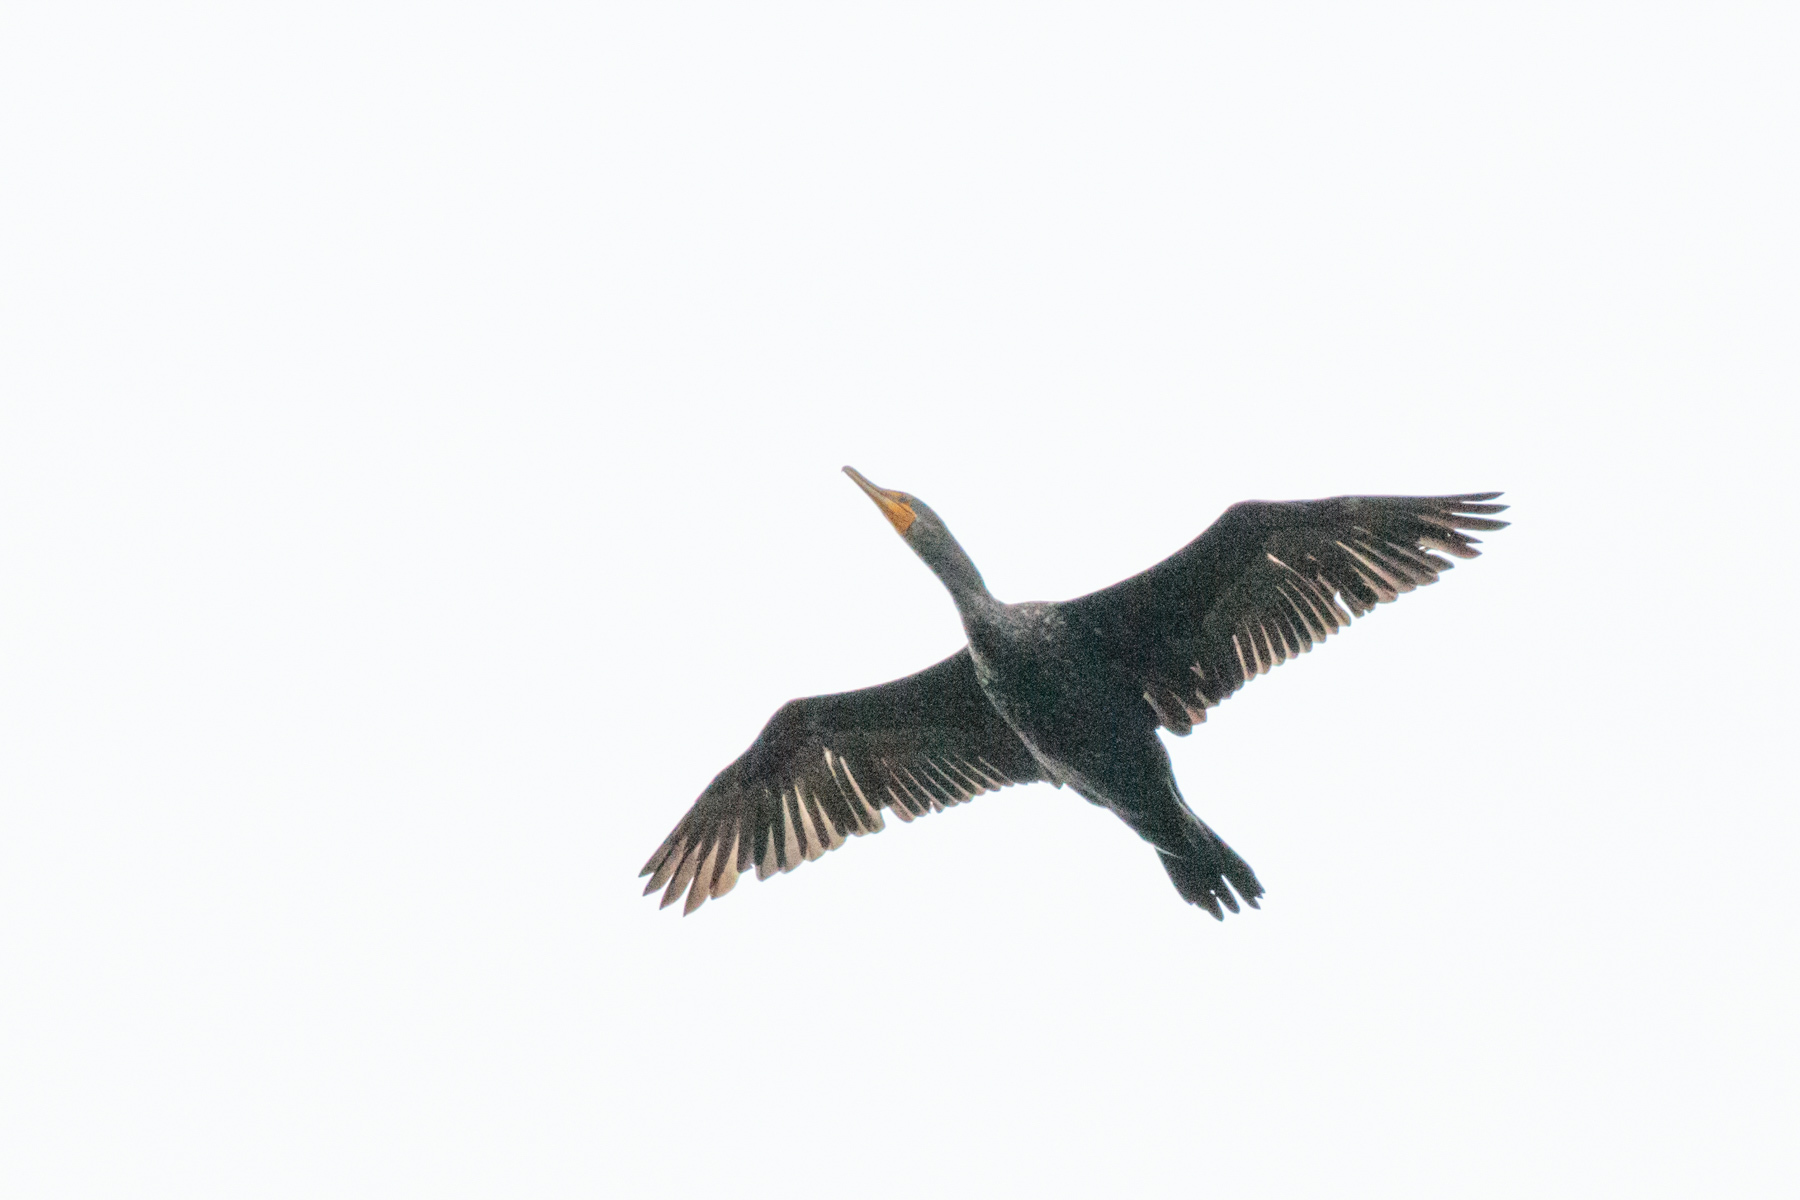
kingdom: Animalia
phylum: Chordata
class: Aves
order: Suliformes
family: Phalacrocoracidae
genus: Phalacrocorax
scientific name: Phalacrocorax auritus
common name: Double-crested cormorant
